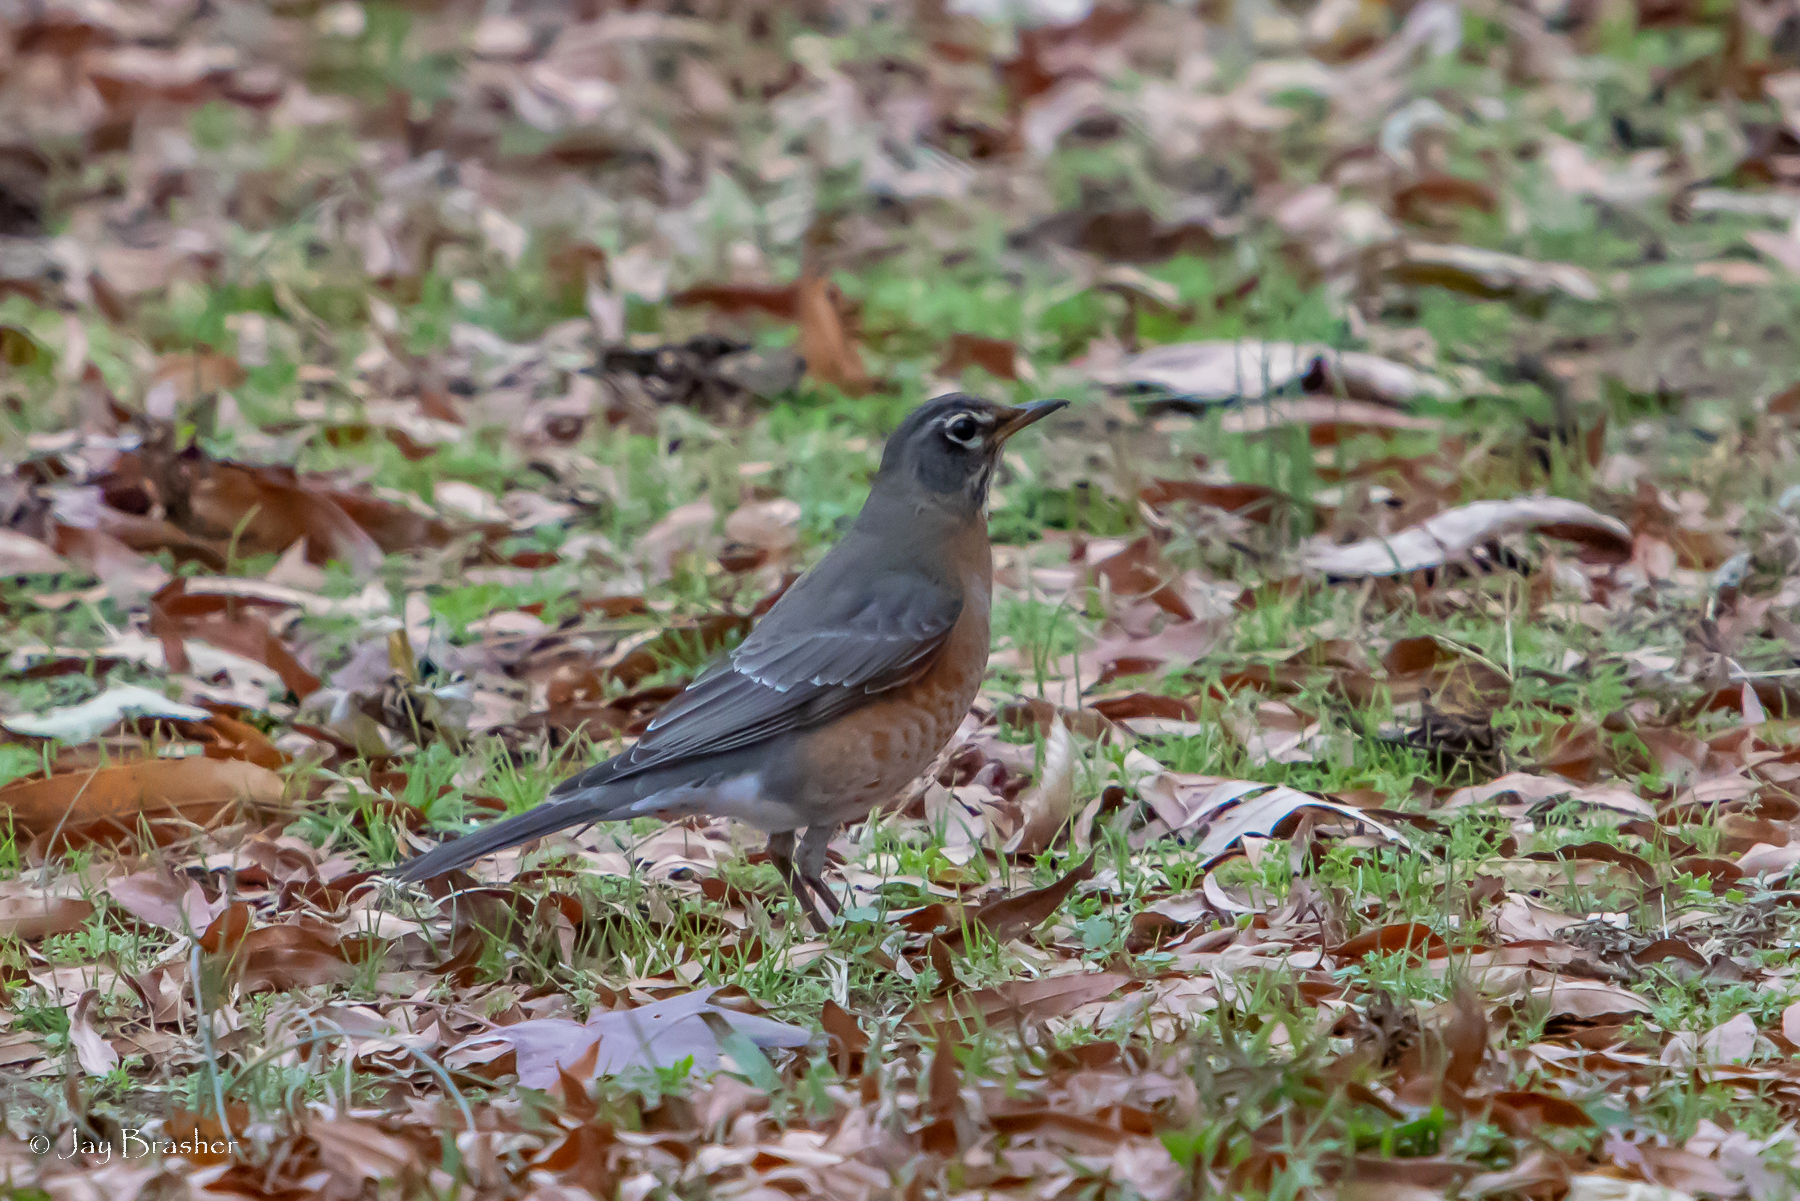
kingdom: Animalia
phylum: Chordata
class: Aves
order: Passeriformes
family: Turdidae
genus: Turdus
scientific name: Turdus migratorius
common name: American robin
